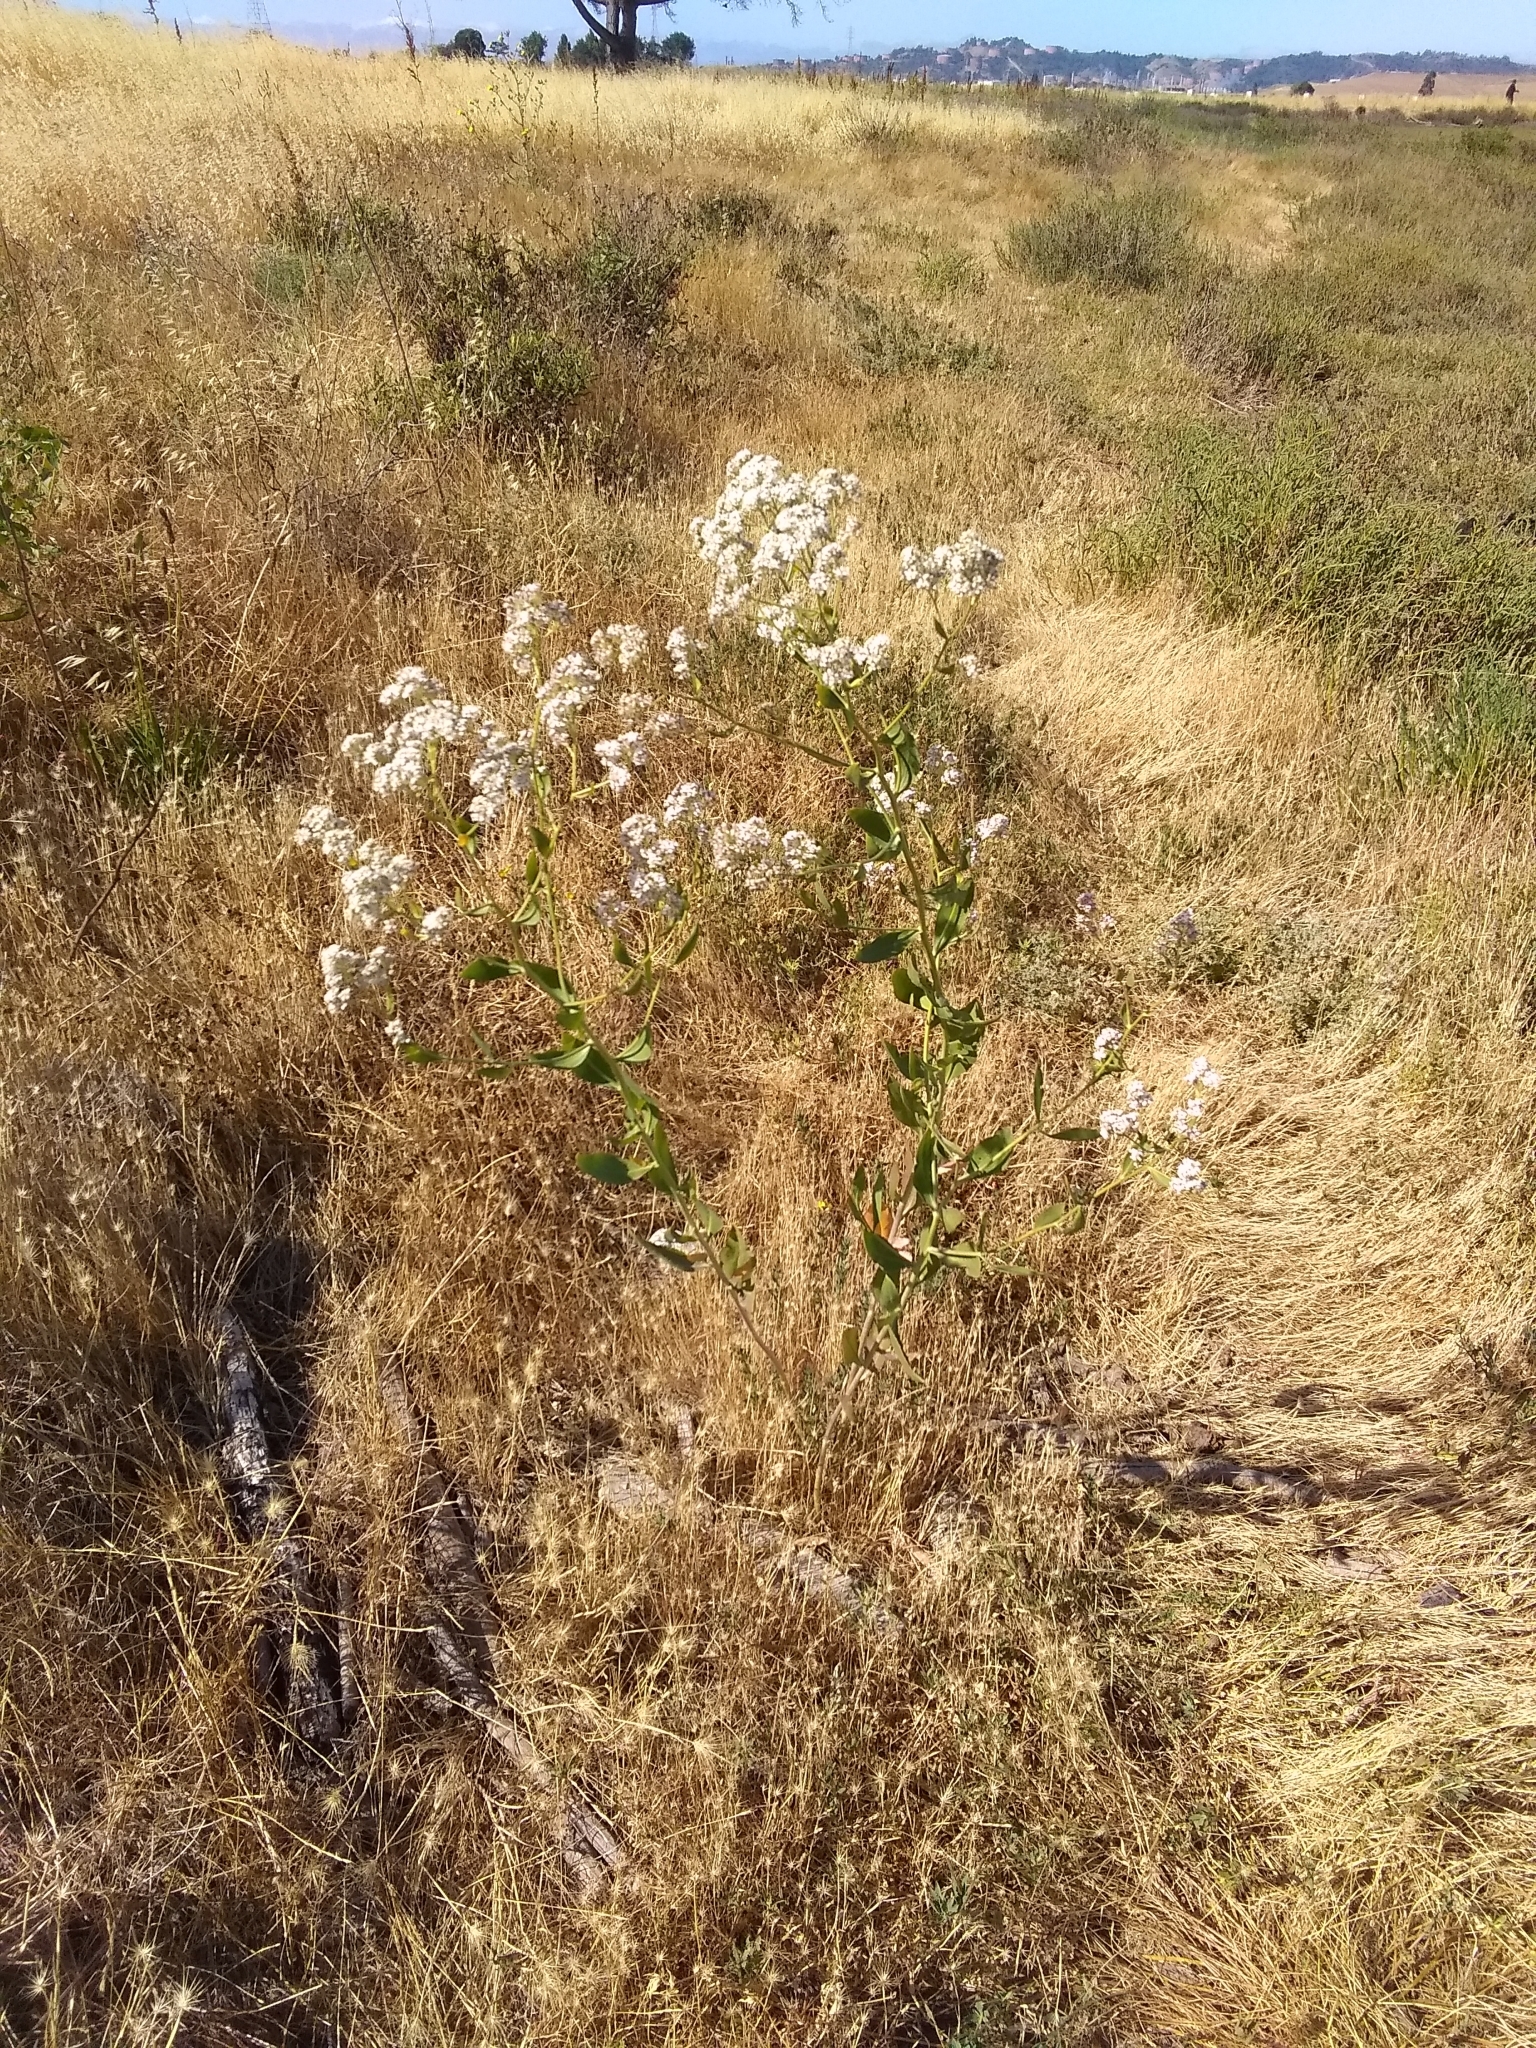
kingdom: Plantae
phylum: Tracheophyta
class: Magnoliopsida
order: Brassicales
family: Brassicaceae
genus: Lepidium
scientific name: Lepidium latifolium
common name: Dittander
